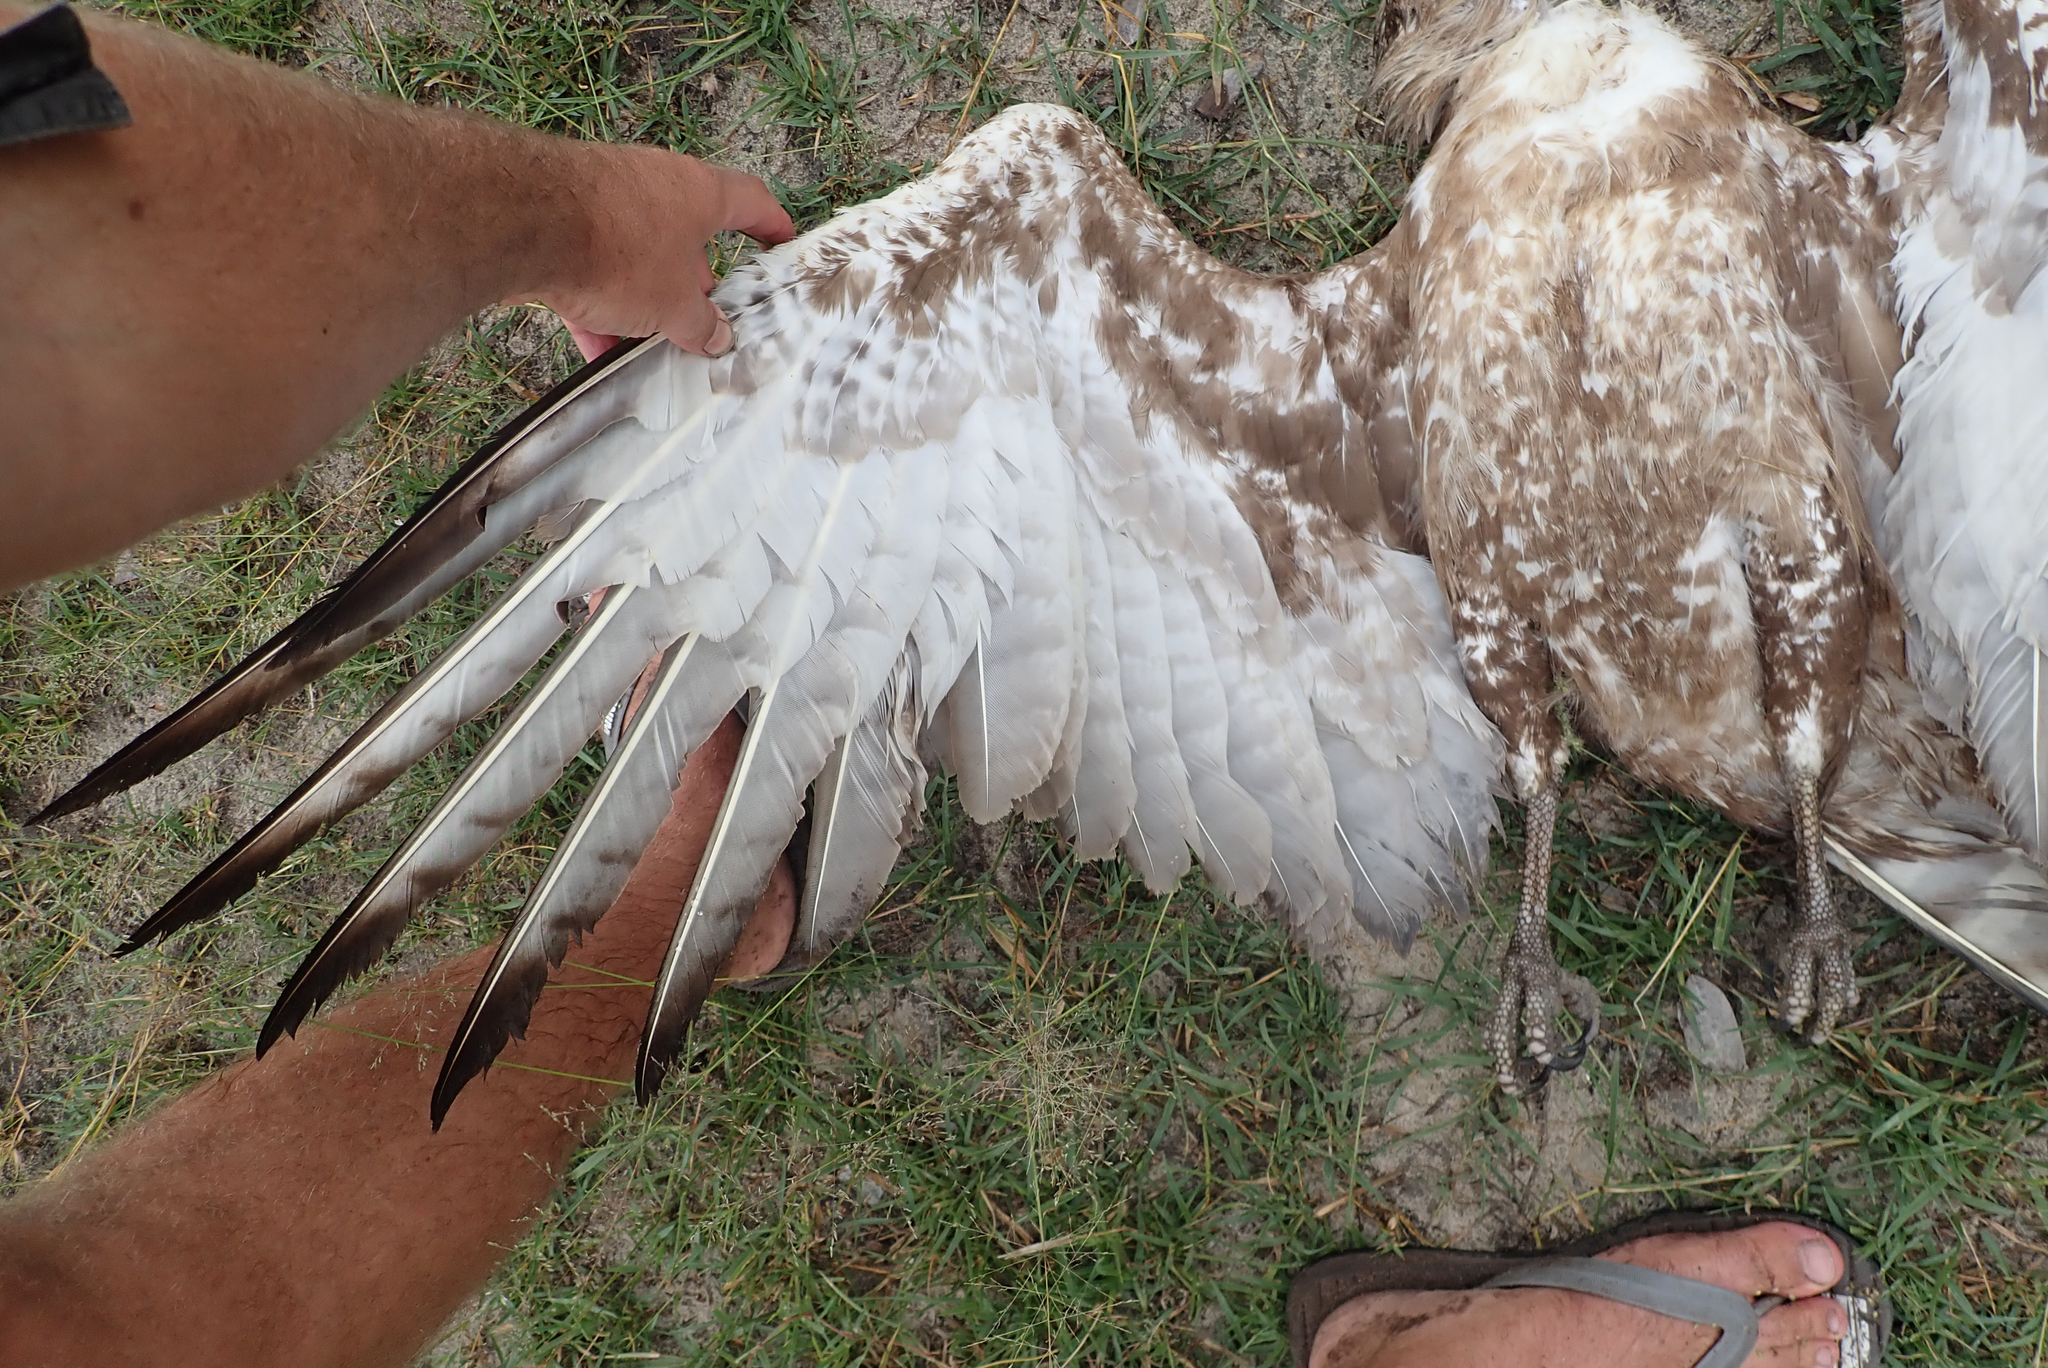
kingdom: Animalia
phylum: Chordata
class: Aves
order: Accipitriformes
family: Accipitridae
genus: Circaetus
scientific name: Circaetus cinereus
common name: Brown snake eagle
